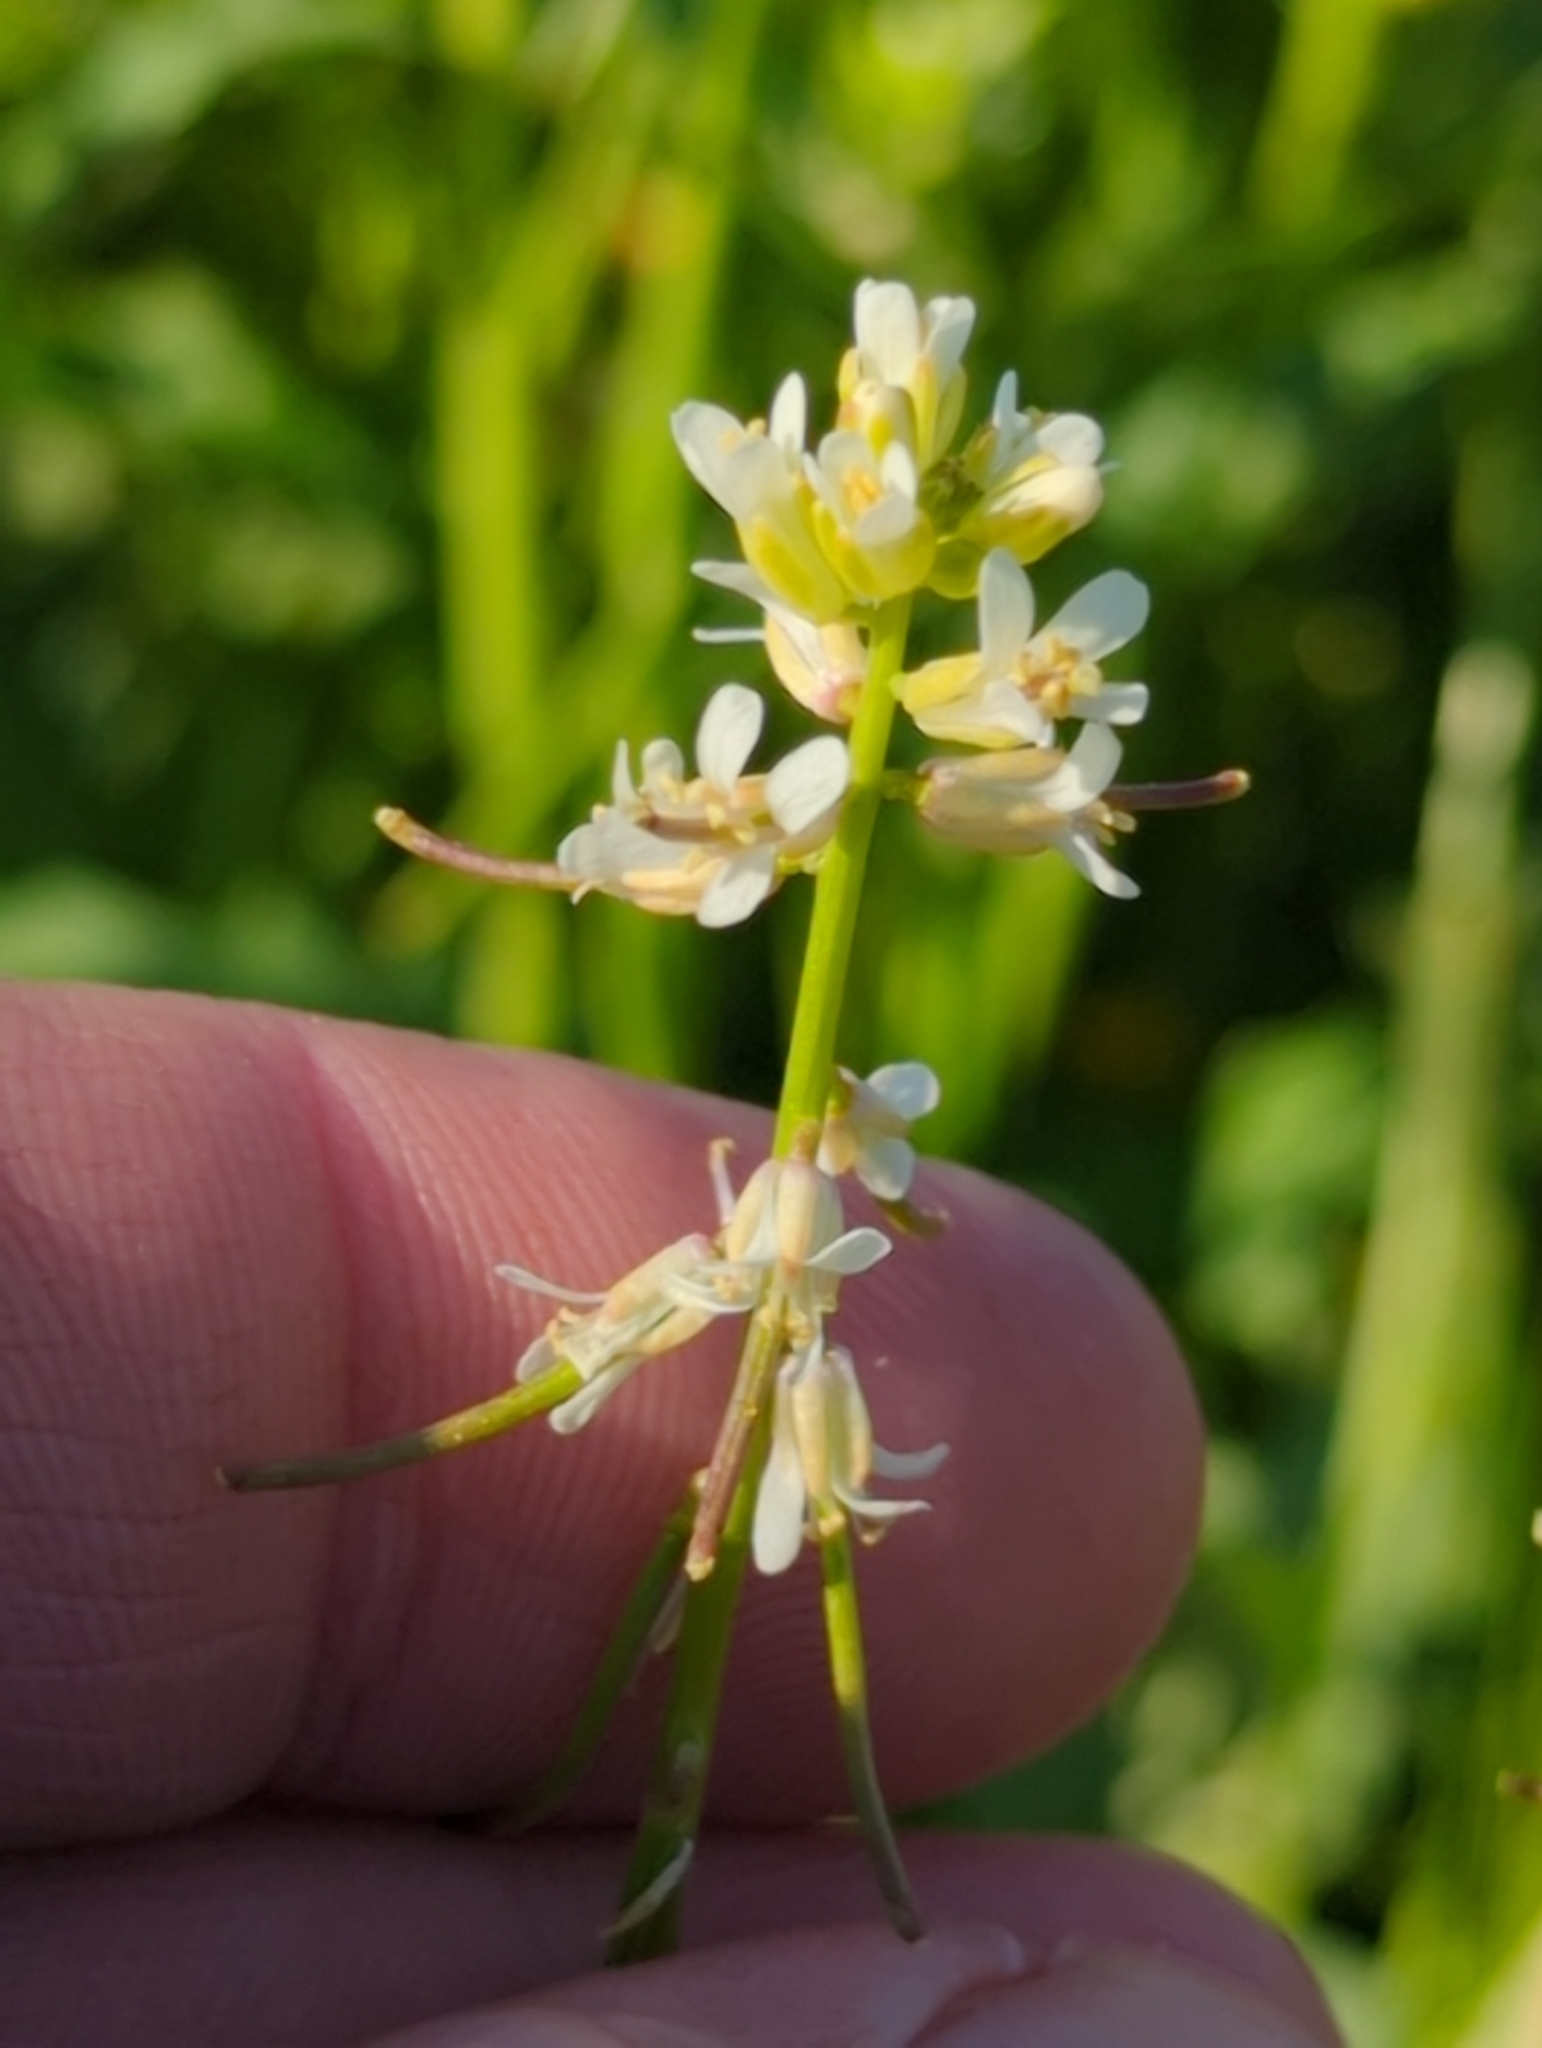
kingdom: Plantae
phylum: Tracheophyta
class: Magnoliopsida
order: Brassicales
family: Brassicaceae
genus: Streptanthus
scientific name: Streptanthus lasiophyllus
